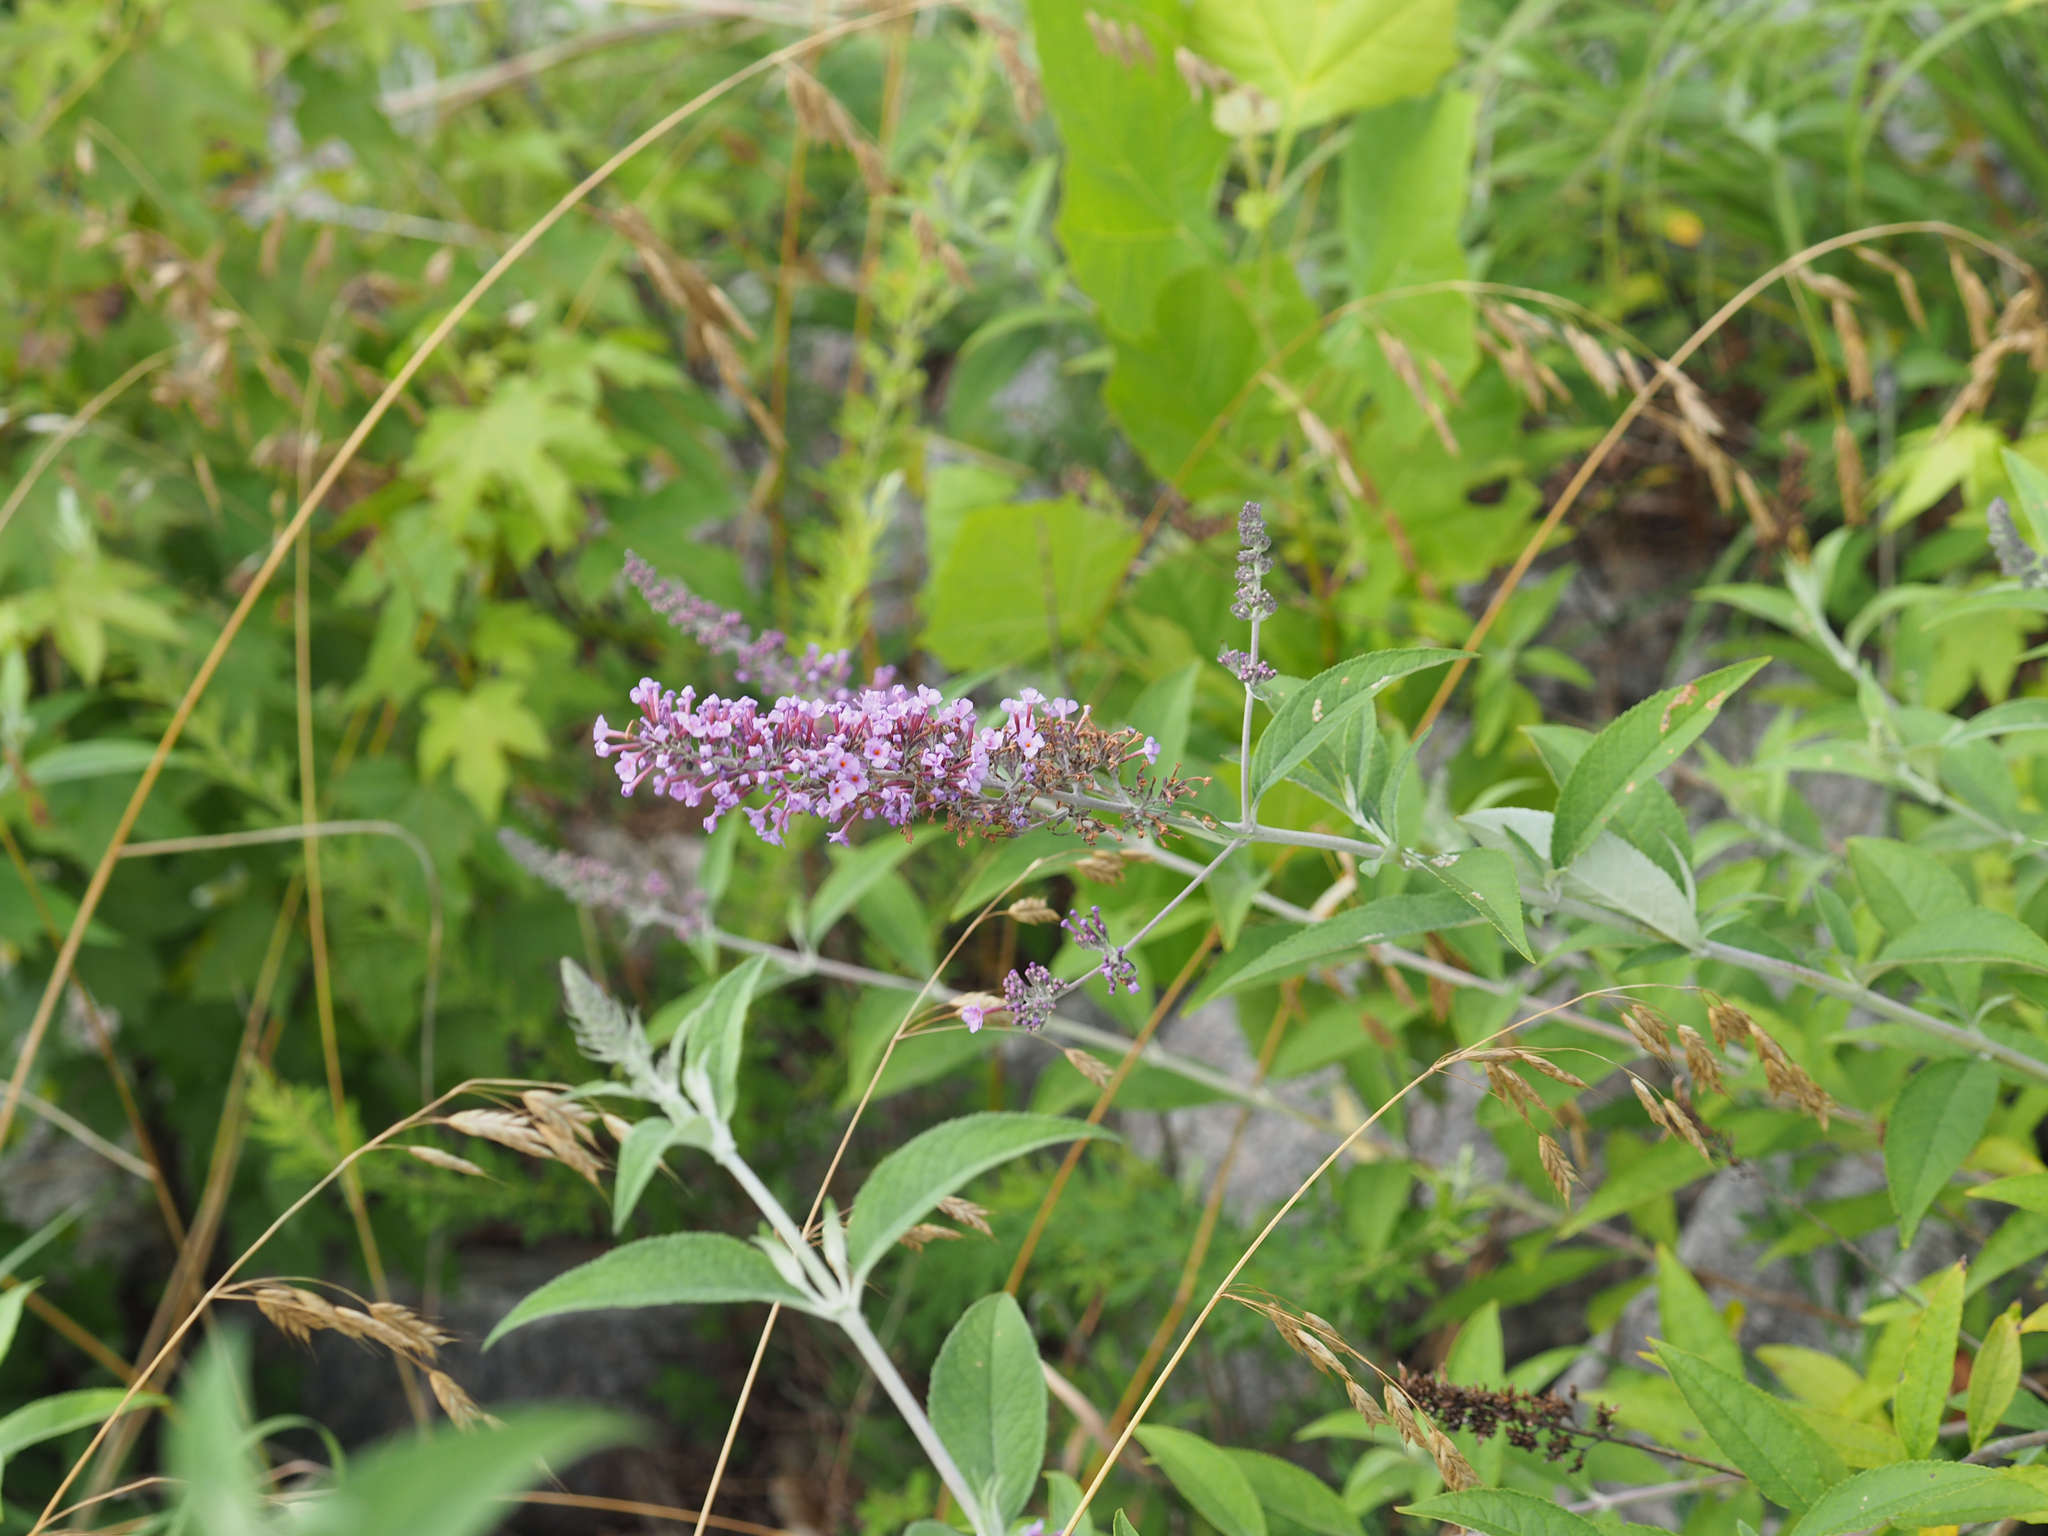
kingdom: Plantae
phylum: Tracheophyta
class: Magnoliopsida
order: Lamiales
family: Scrophulariaceae
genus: Buddleja
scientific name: Buddleja davidii
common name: Butterfly-bush
